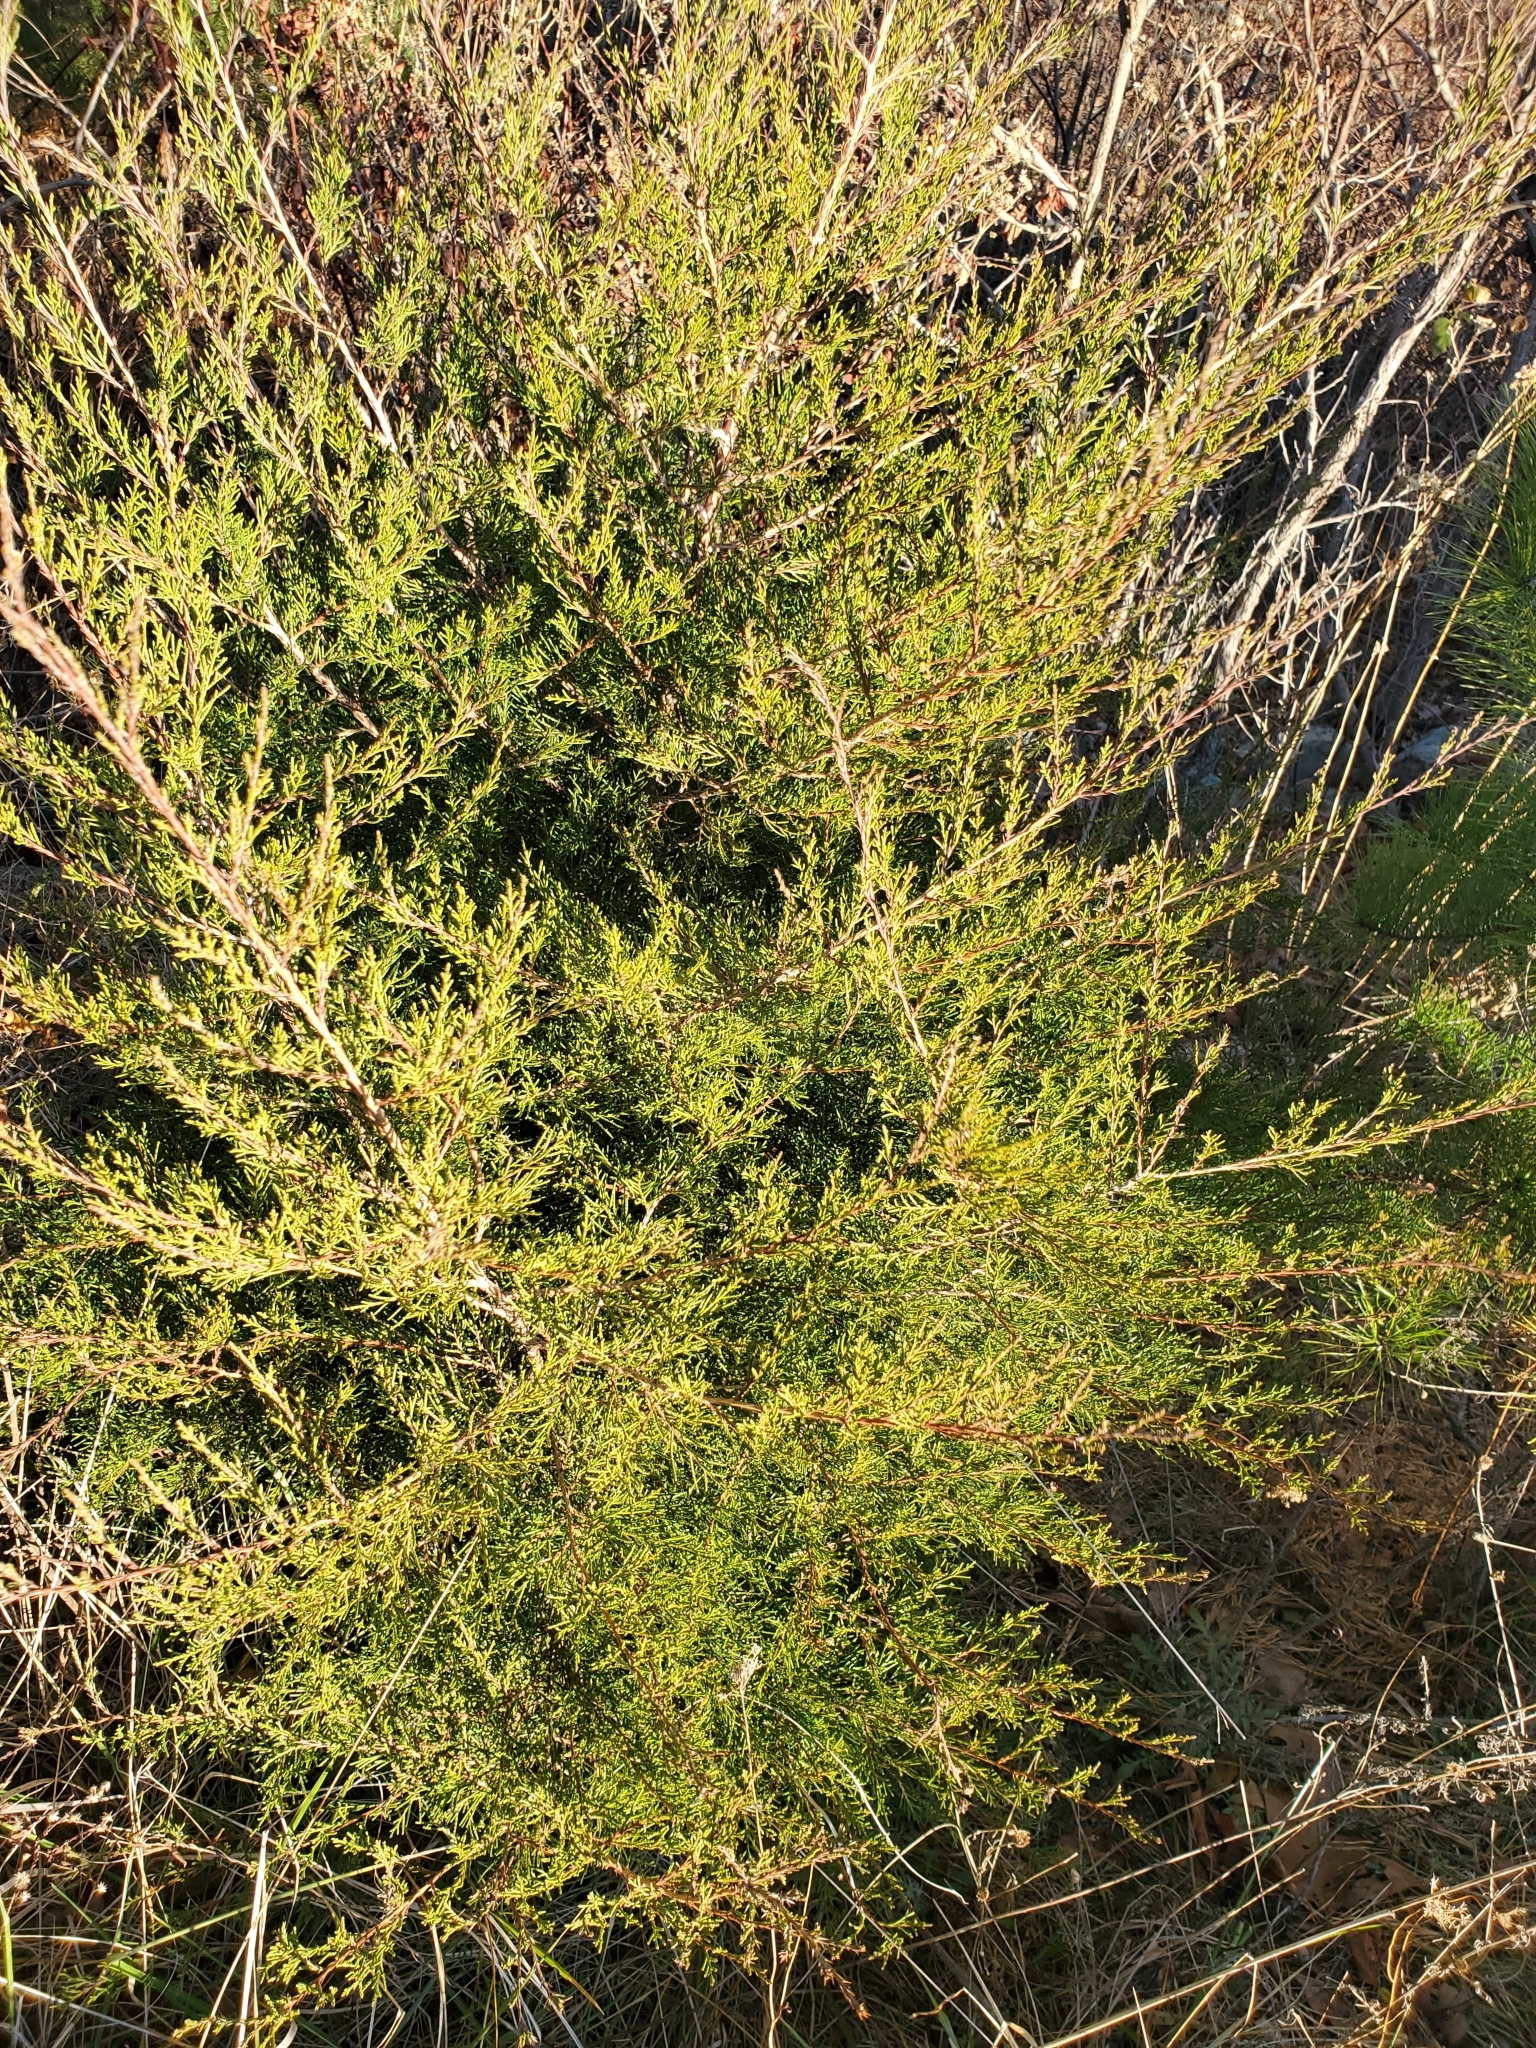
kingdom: Plantae
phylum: Tracheophyta
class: Pinopsida
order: Pinales
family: Cupressaceae
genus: Juniperus
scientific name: Juniperus virginiana
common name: Red juniper
